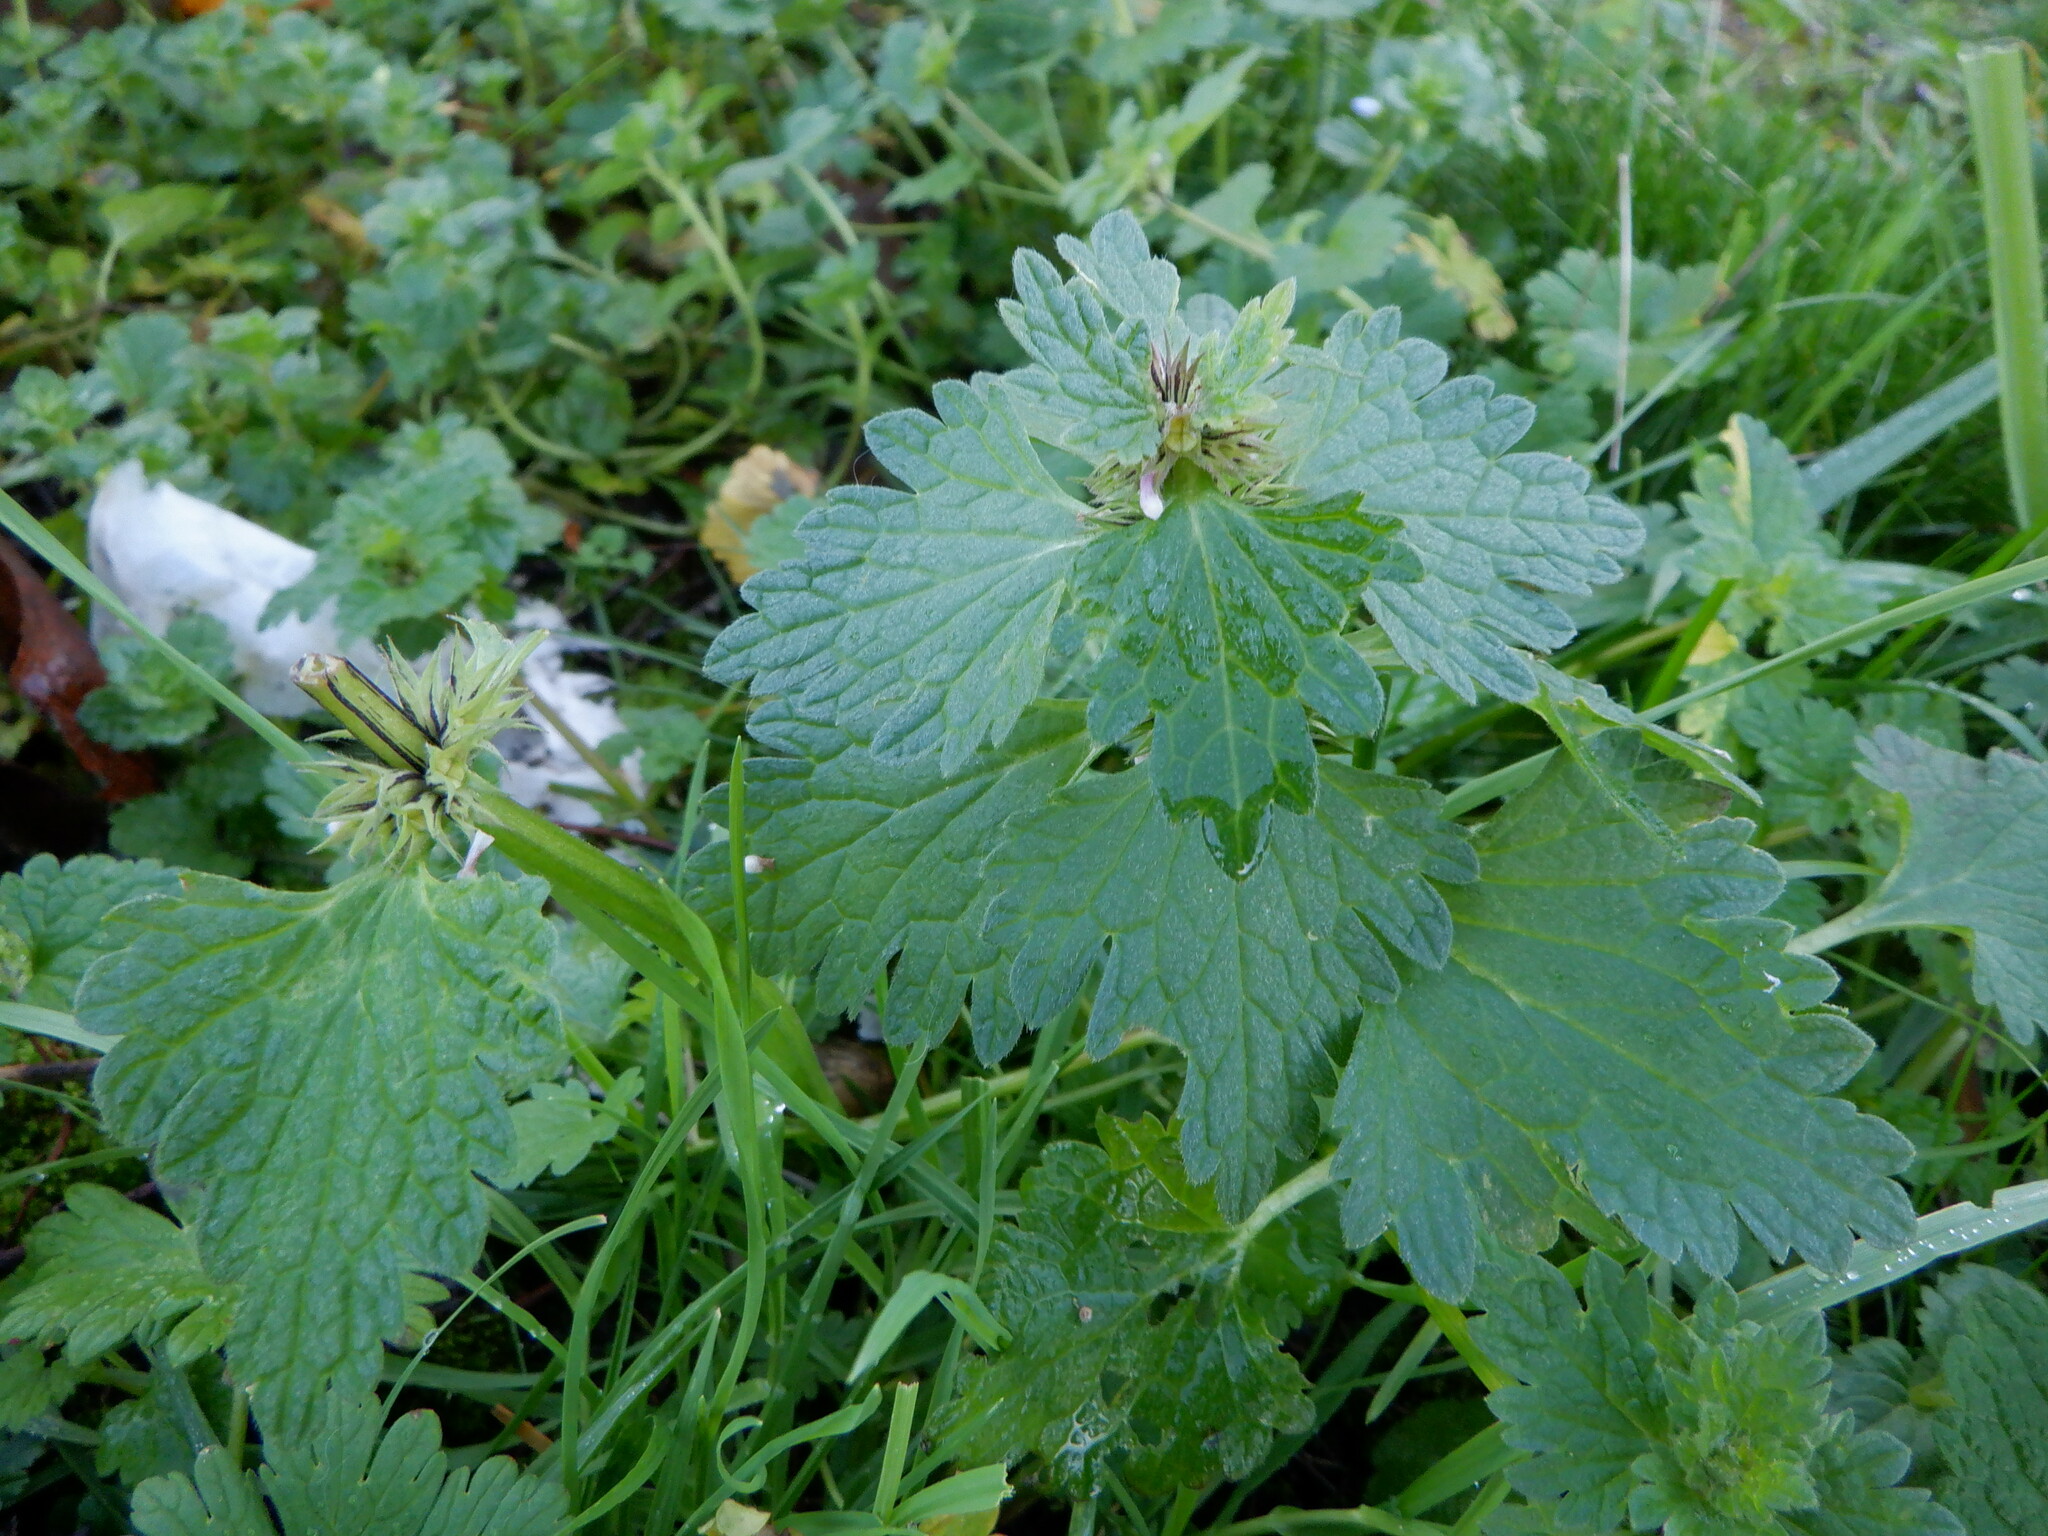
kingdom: Plantae
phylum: Tracheophyta
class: Magnoliopsida
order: Lamiales
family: Lamiaceae
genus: Lamium
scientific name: Lamium hybridum
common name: Cut-leaved dead-nettle
